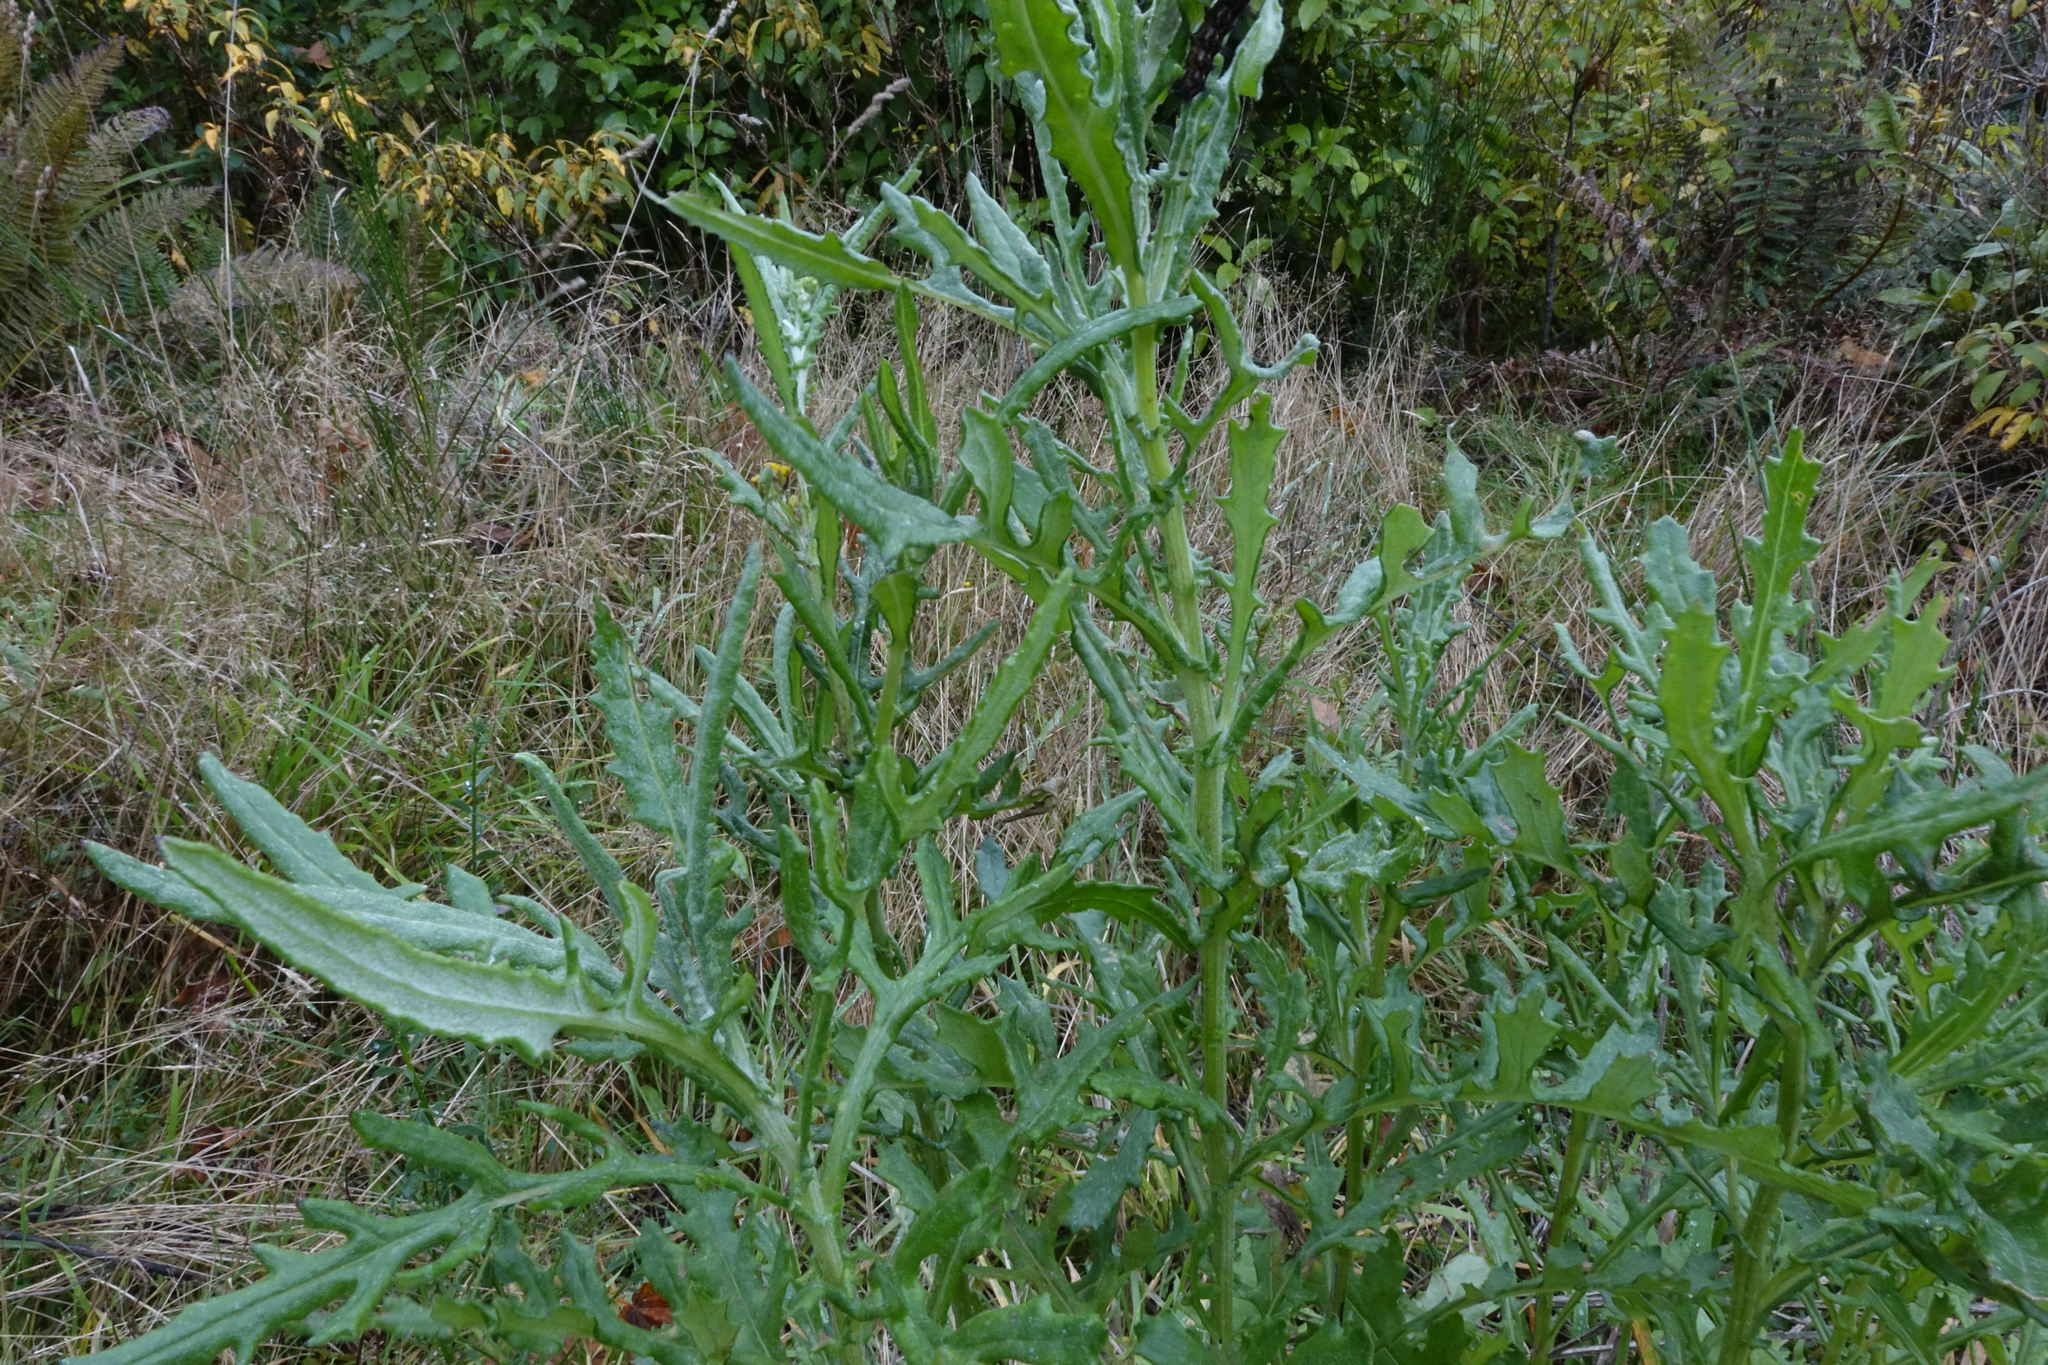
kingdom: Plantae
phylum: Tracheophyta
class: Magnoliopsida
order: Asterales
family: Asteraceae
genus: Senecio
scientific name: Senecio glomeratus
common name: Cutleaf burnweed
